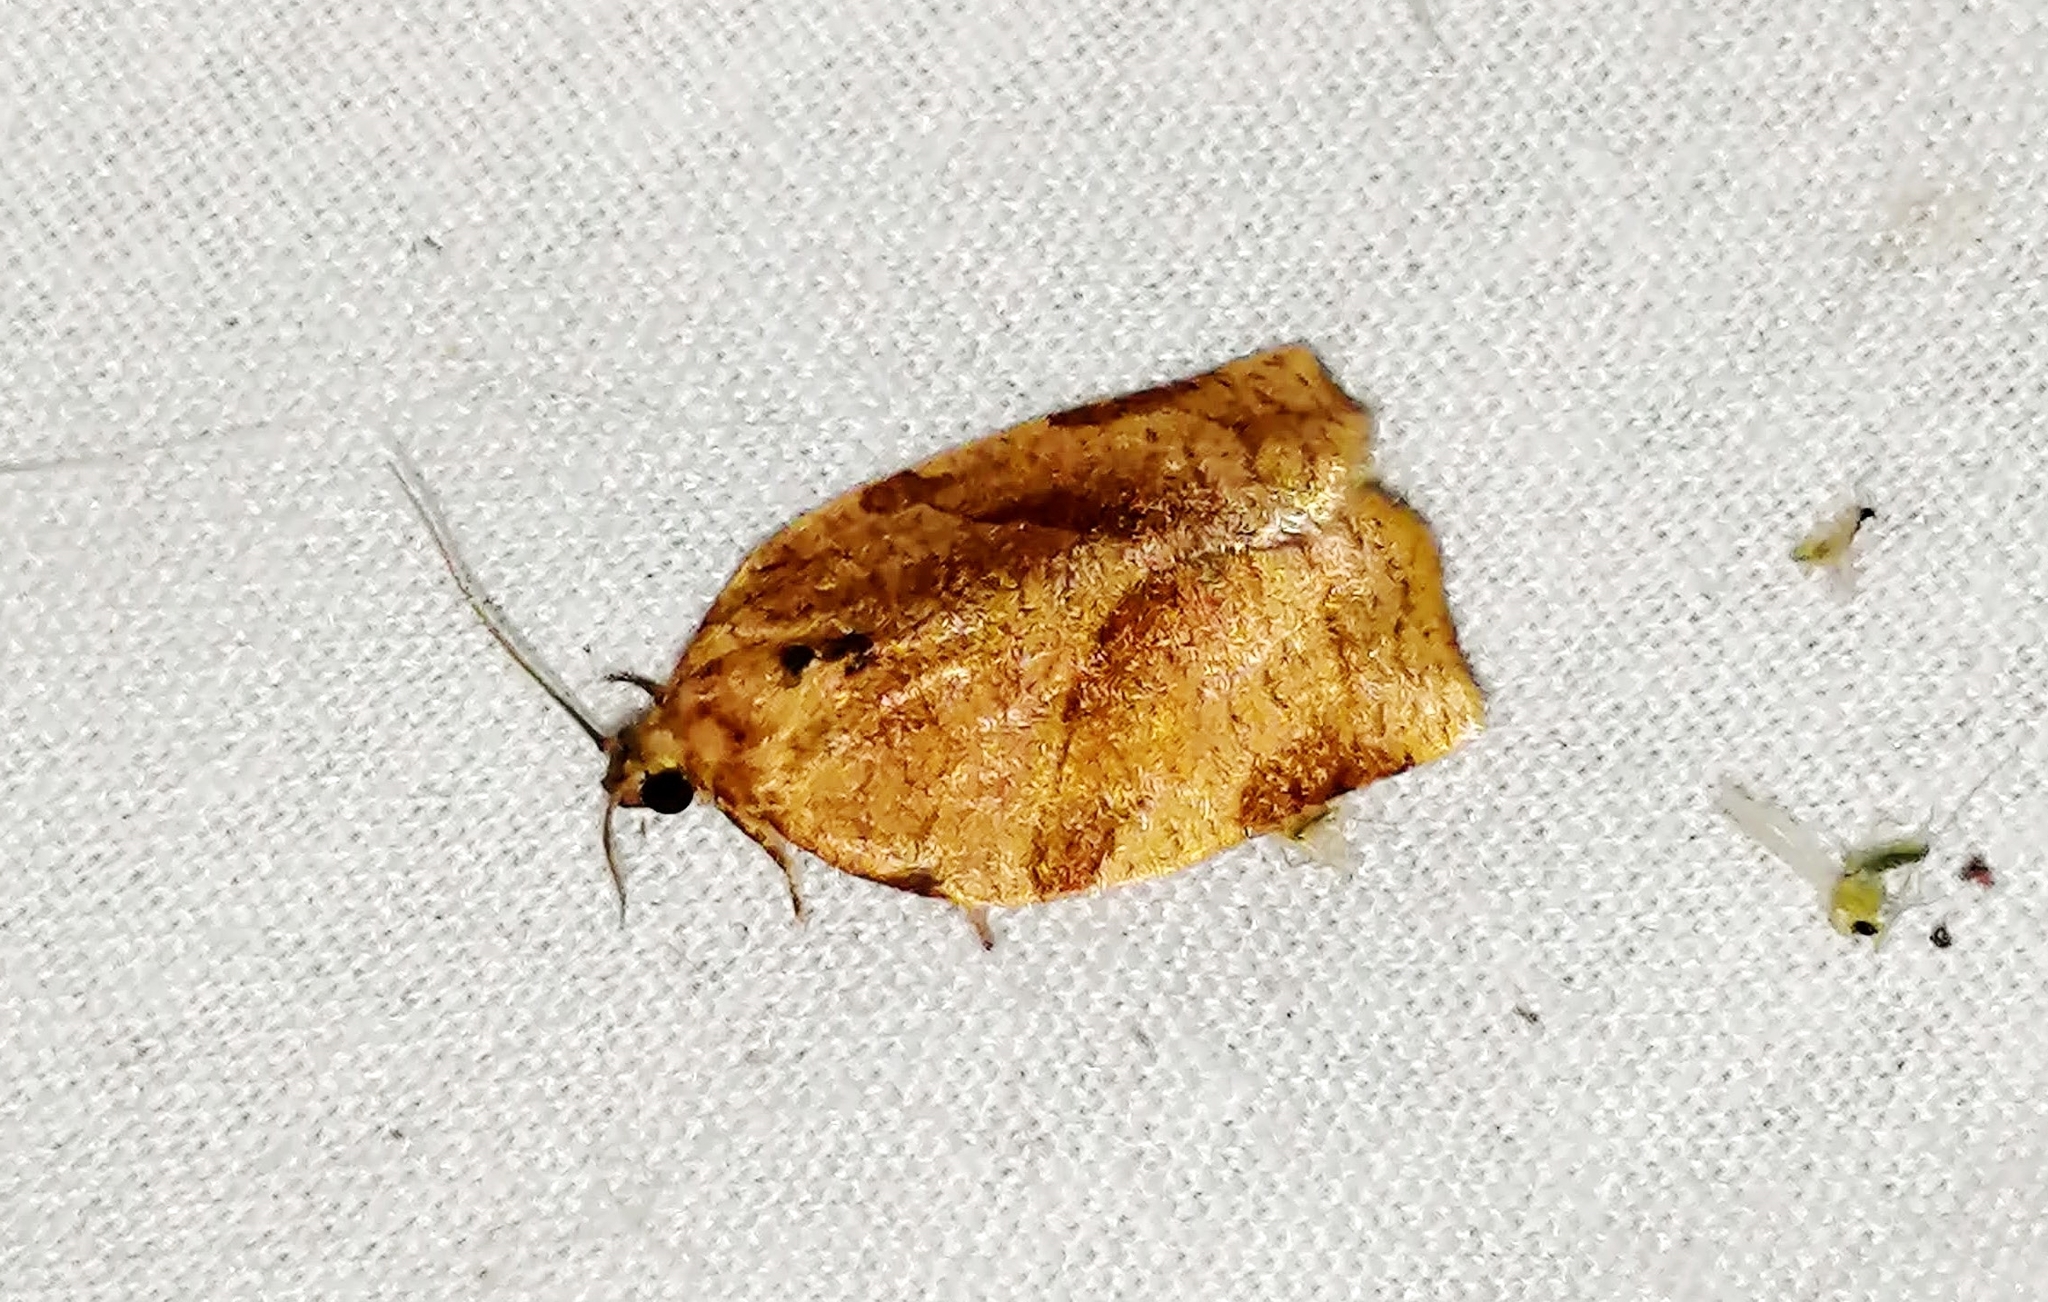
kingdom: Animalia
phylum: Arthropoda
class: Insecta
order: Lepidoptera
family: Tortricidae
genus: Choristoneura
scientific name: Choristoneura rosaceana
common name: Oblique-banded leafroller moth
